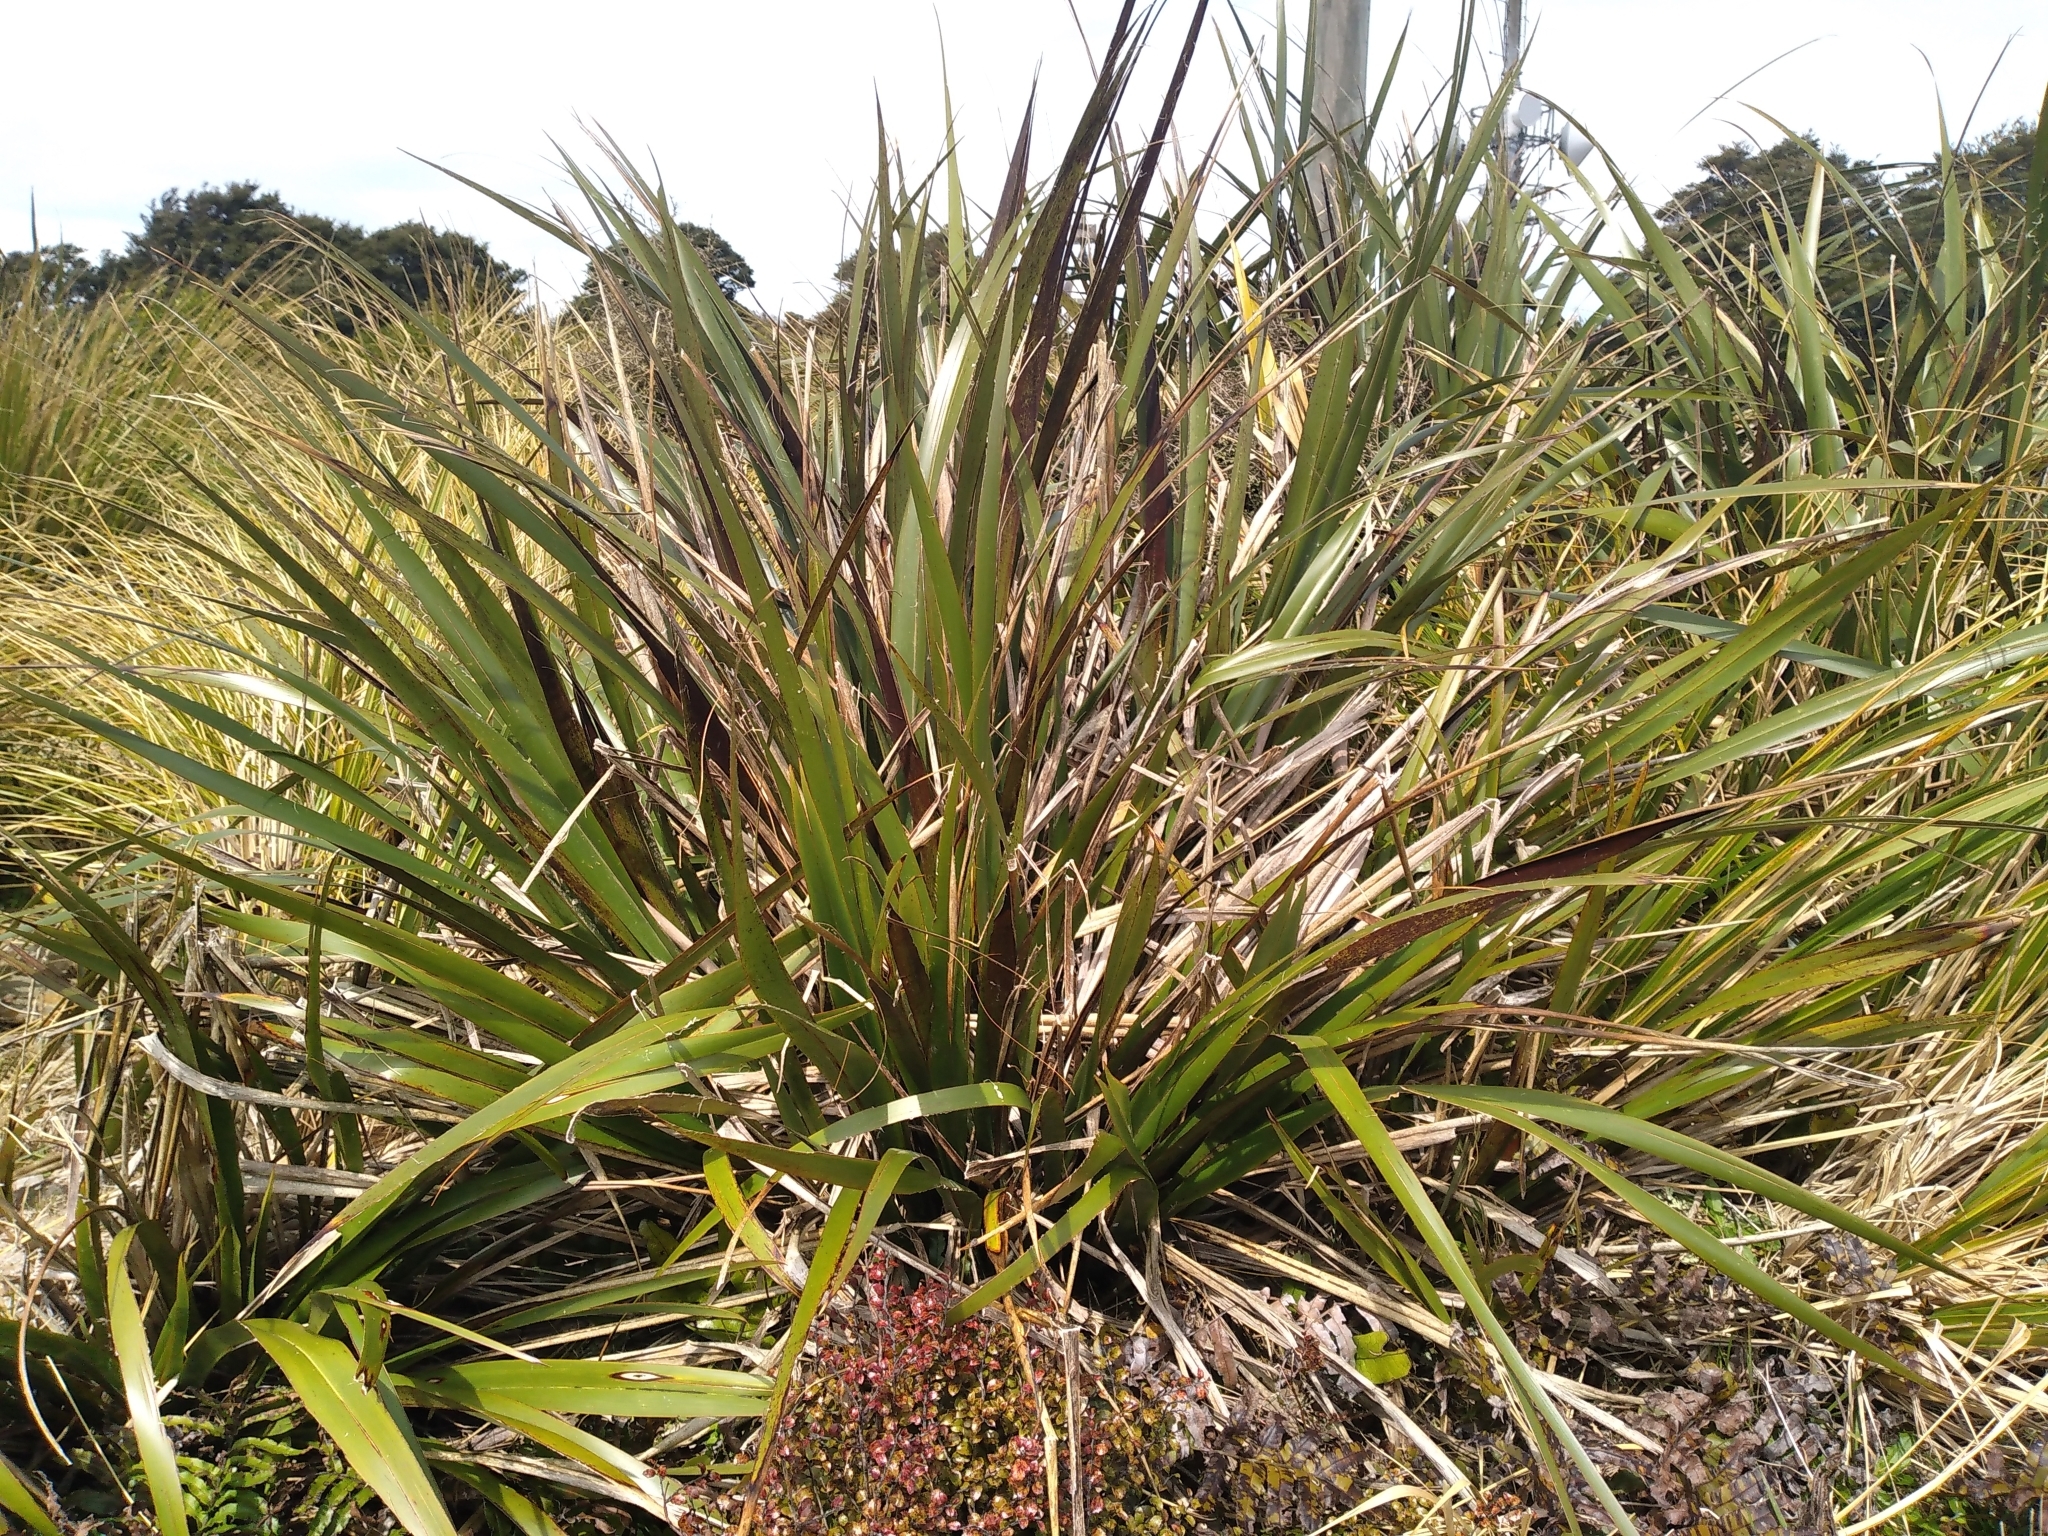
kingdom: Plantae
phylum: Tracheophyta
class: Liliopsida
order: Asparagales
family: Asphodelaceae
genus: Phormium
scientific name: Phormium colensoi
